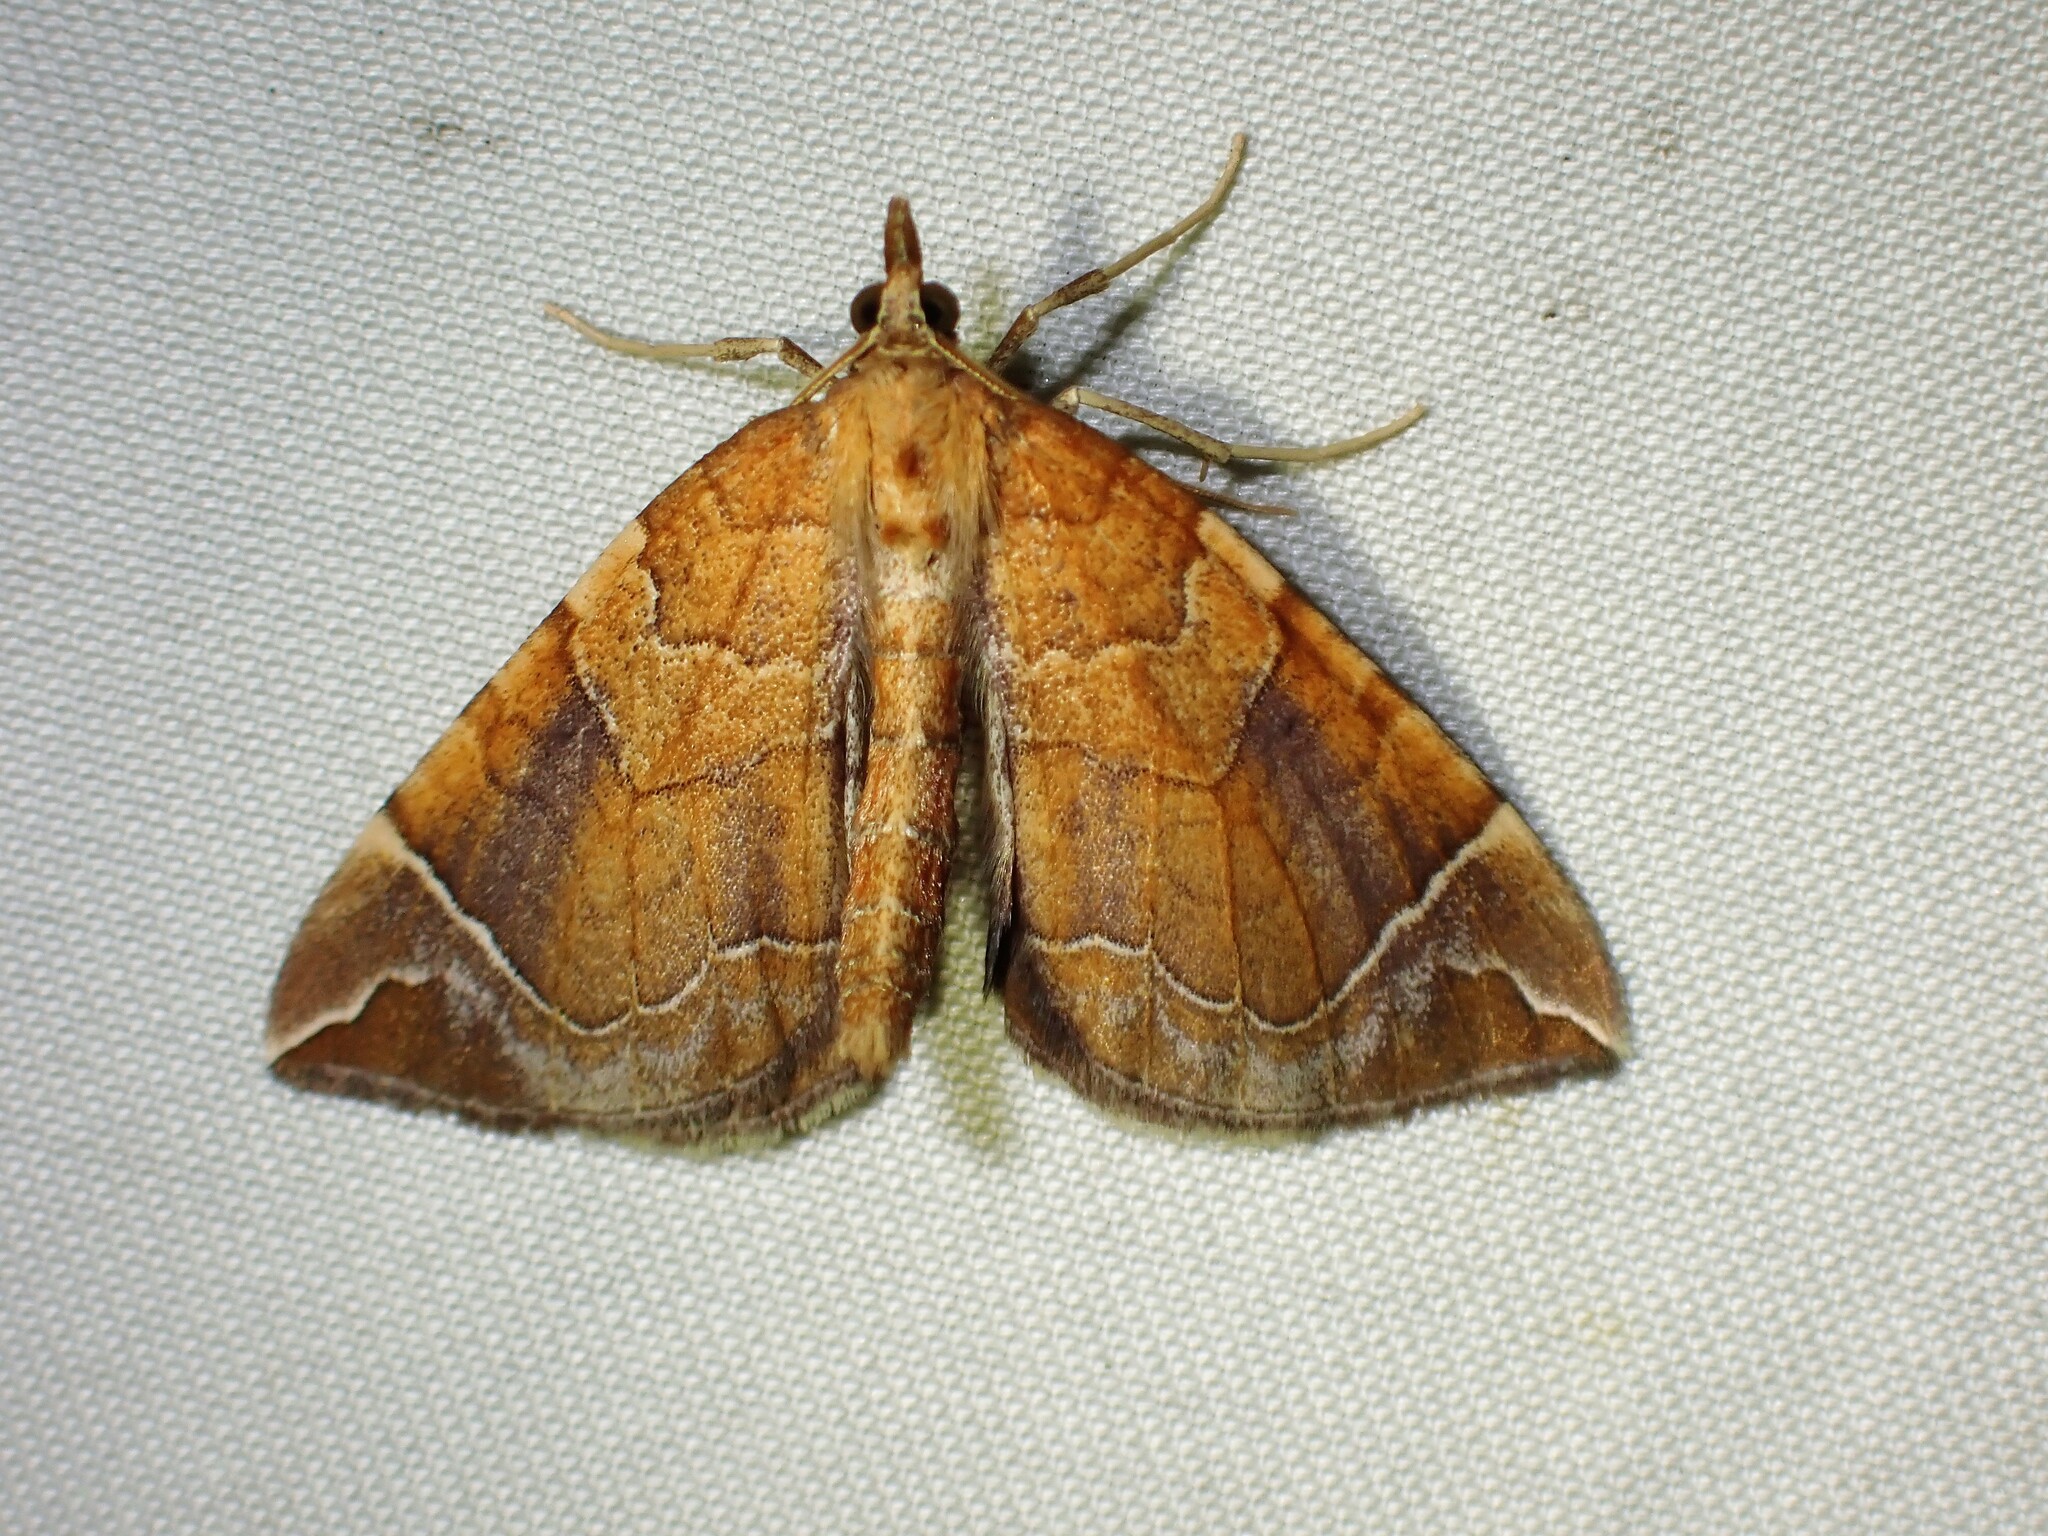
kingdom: Animalia
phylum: Arthropoda
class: Insecta
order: Lepidoptera
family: Geometridae
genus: Eulithis
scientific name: Eulithis testata
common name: Chevron
